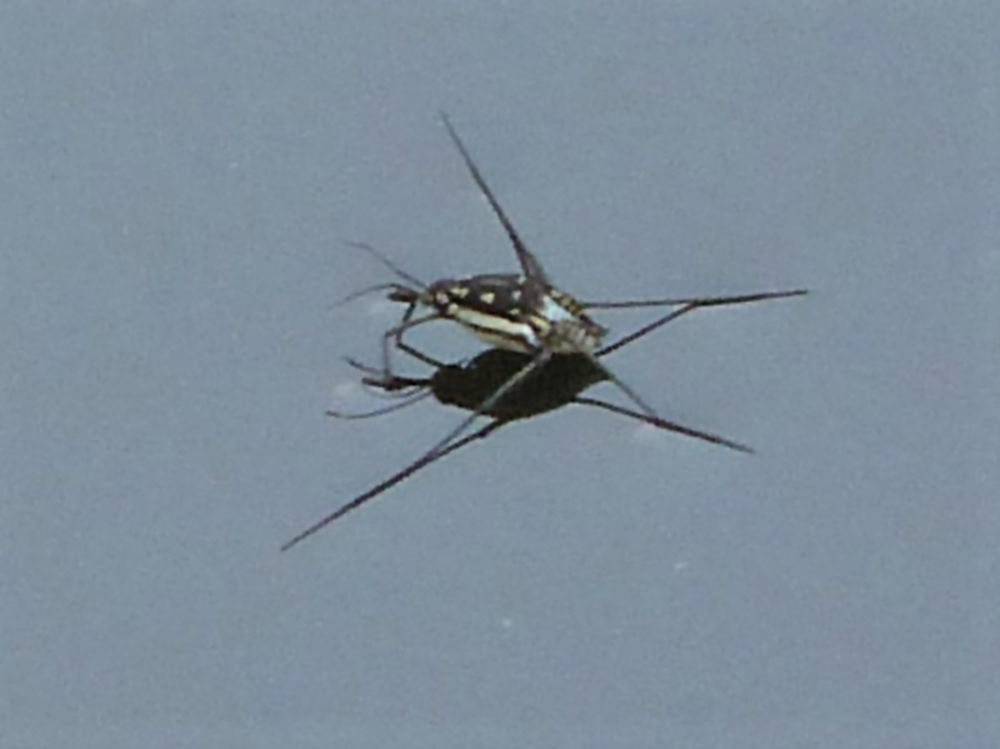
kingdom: Animalia
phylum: Arthropoda
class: Insecta
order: Hemiptera
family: Gerridae
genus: Trepobates
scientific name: Trepobates subnitidus
